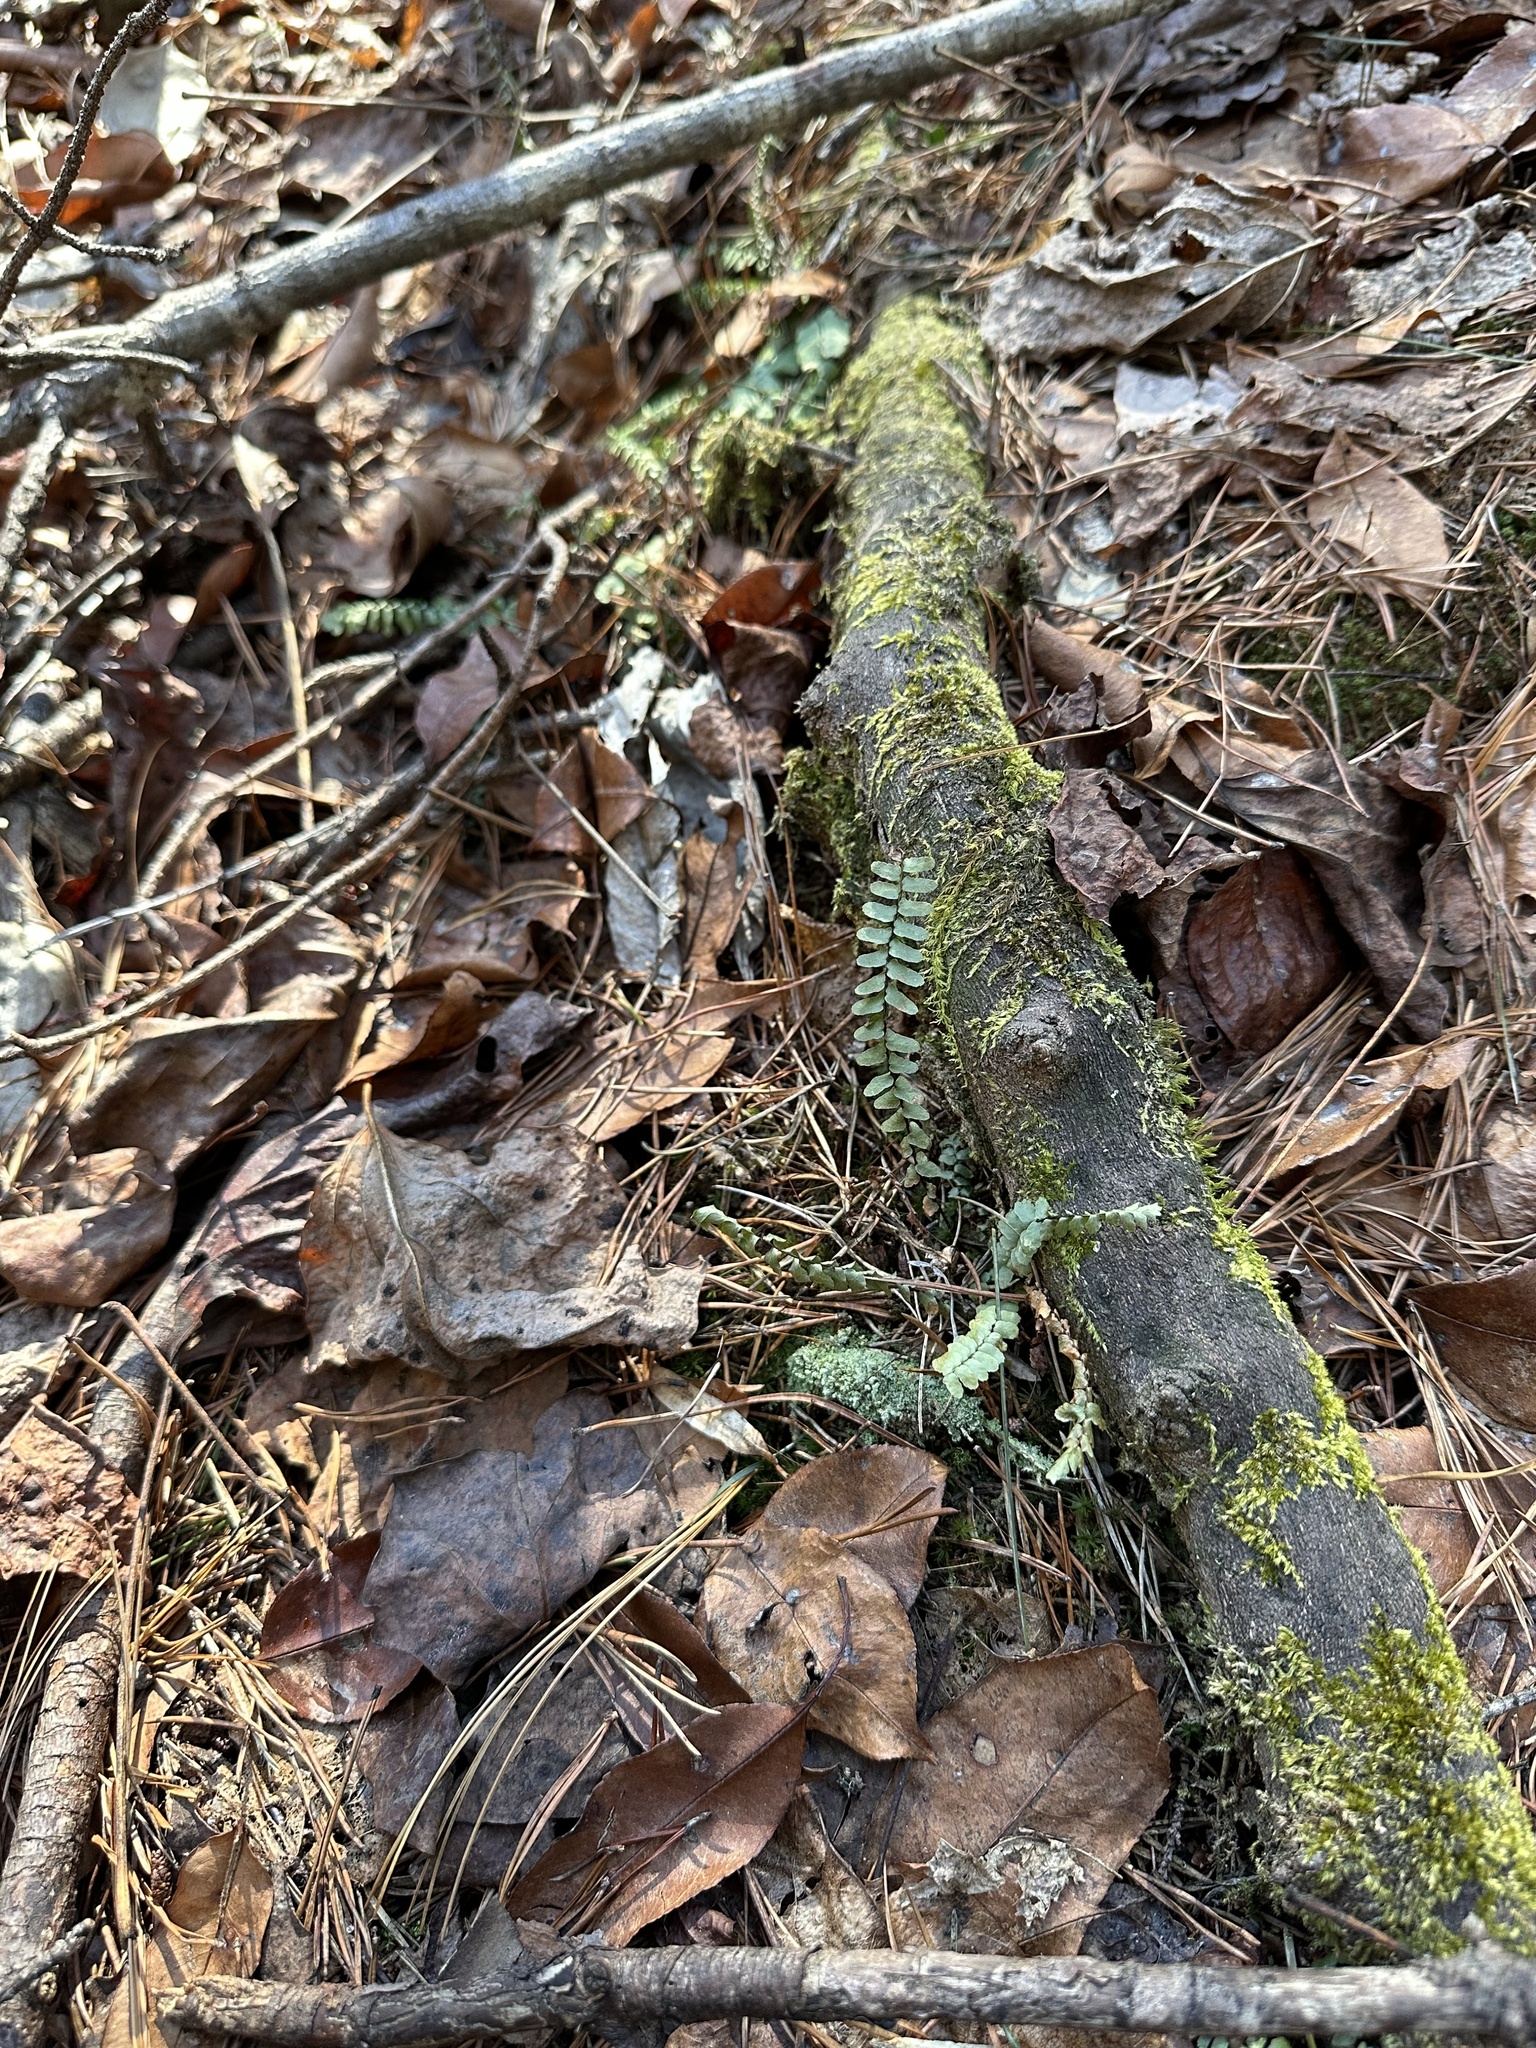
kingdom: Plantae
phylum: Tracheophyta
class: Polypodiopsida
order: Polypodiales
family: Aspleniaceae
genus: Asplenium
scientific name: Asplenium platyneuron
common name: Ebony spleenwort
